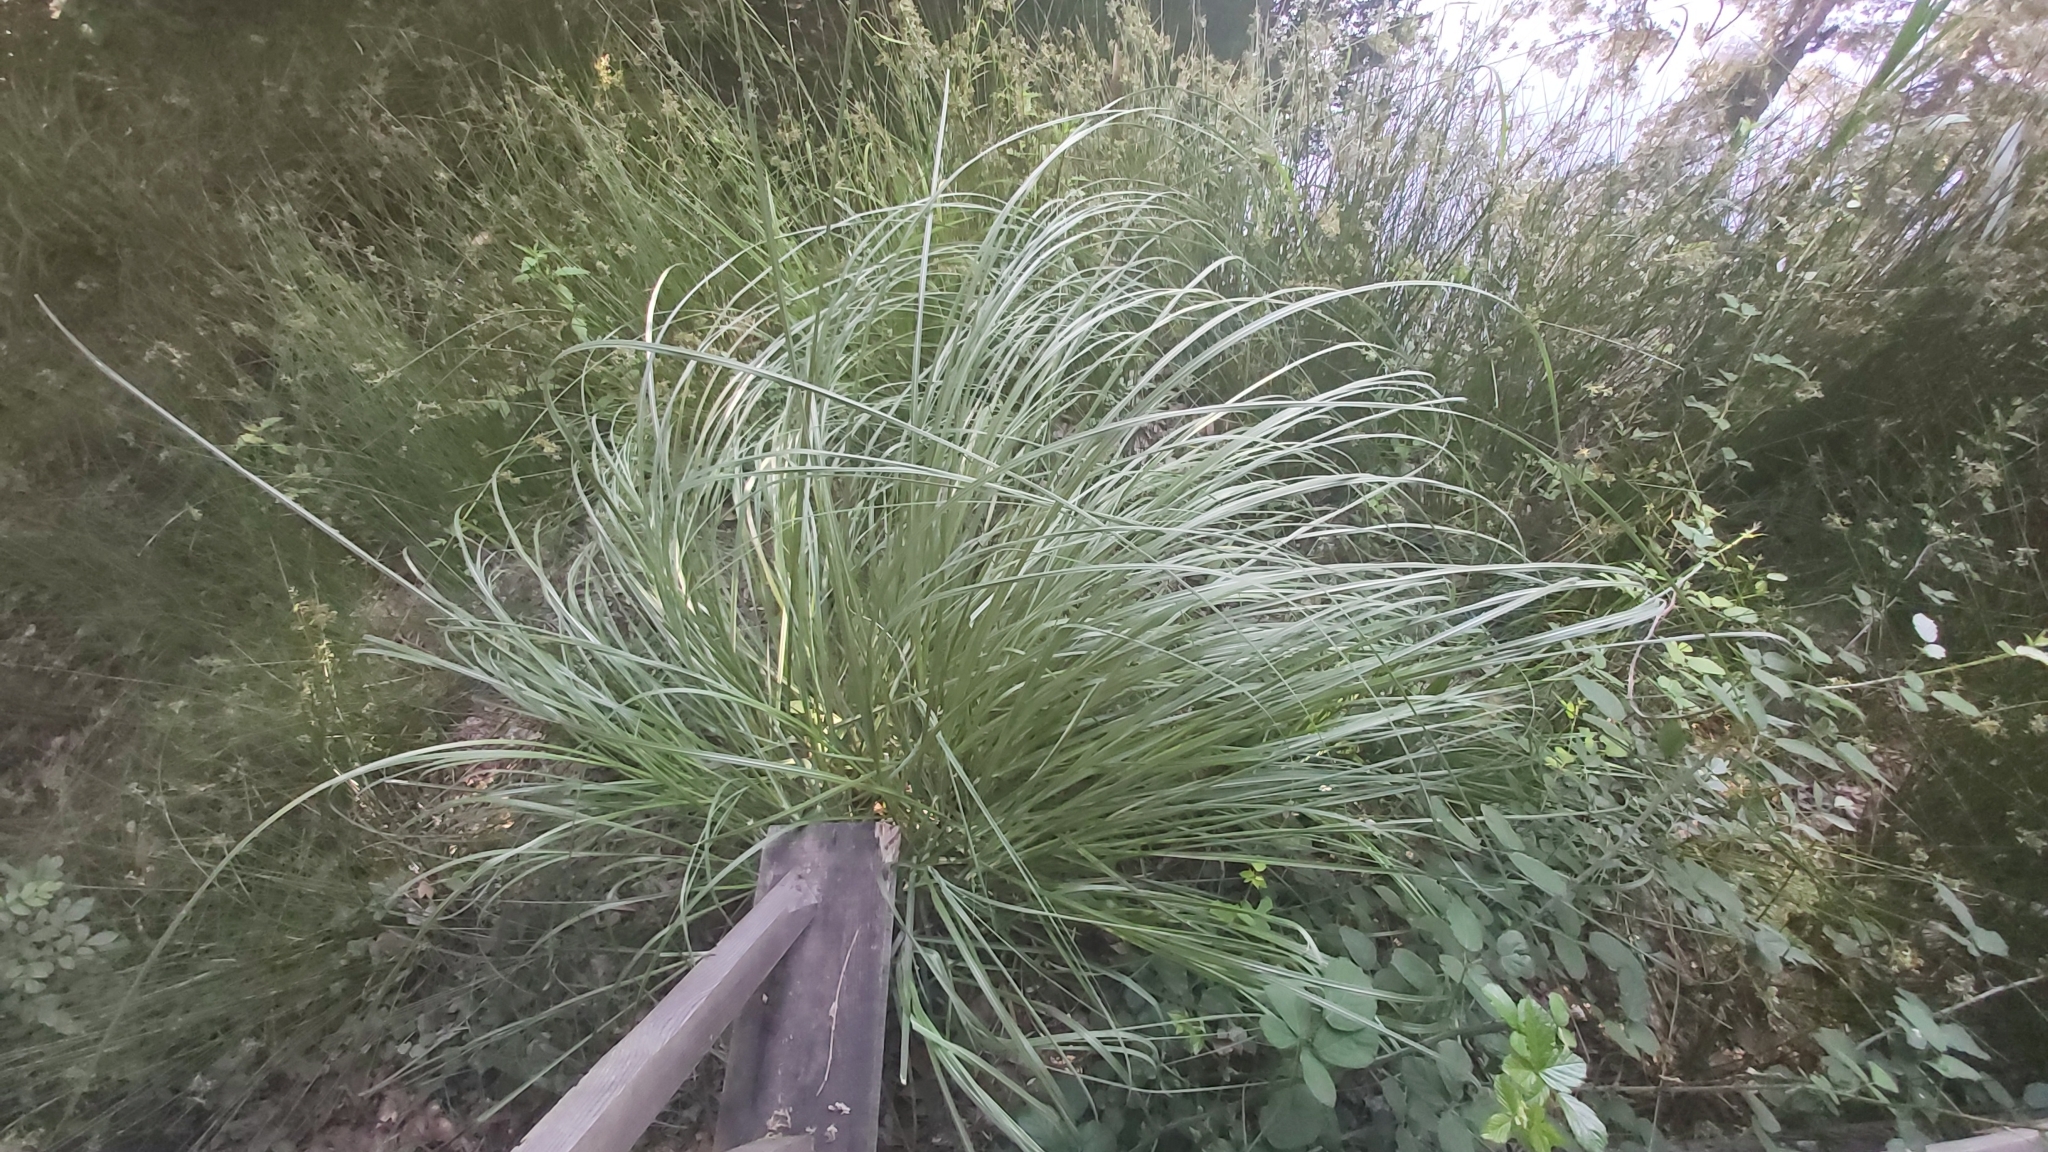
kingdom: Plantae
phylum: Tracheophyta
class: Liliopsida
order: Poales
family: Poaceae
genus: Cortaderia
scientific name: Cortaderia selloana
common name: Uruguayan pampas grass
